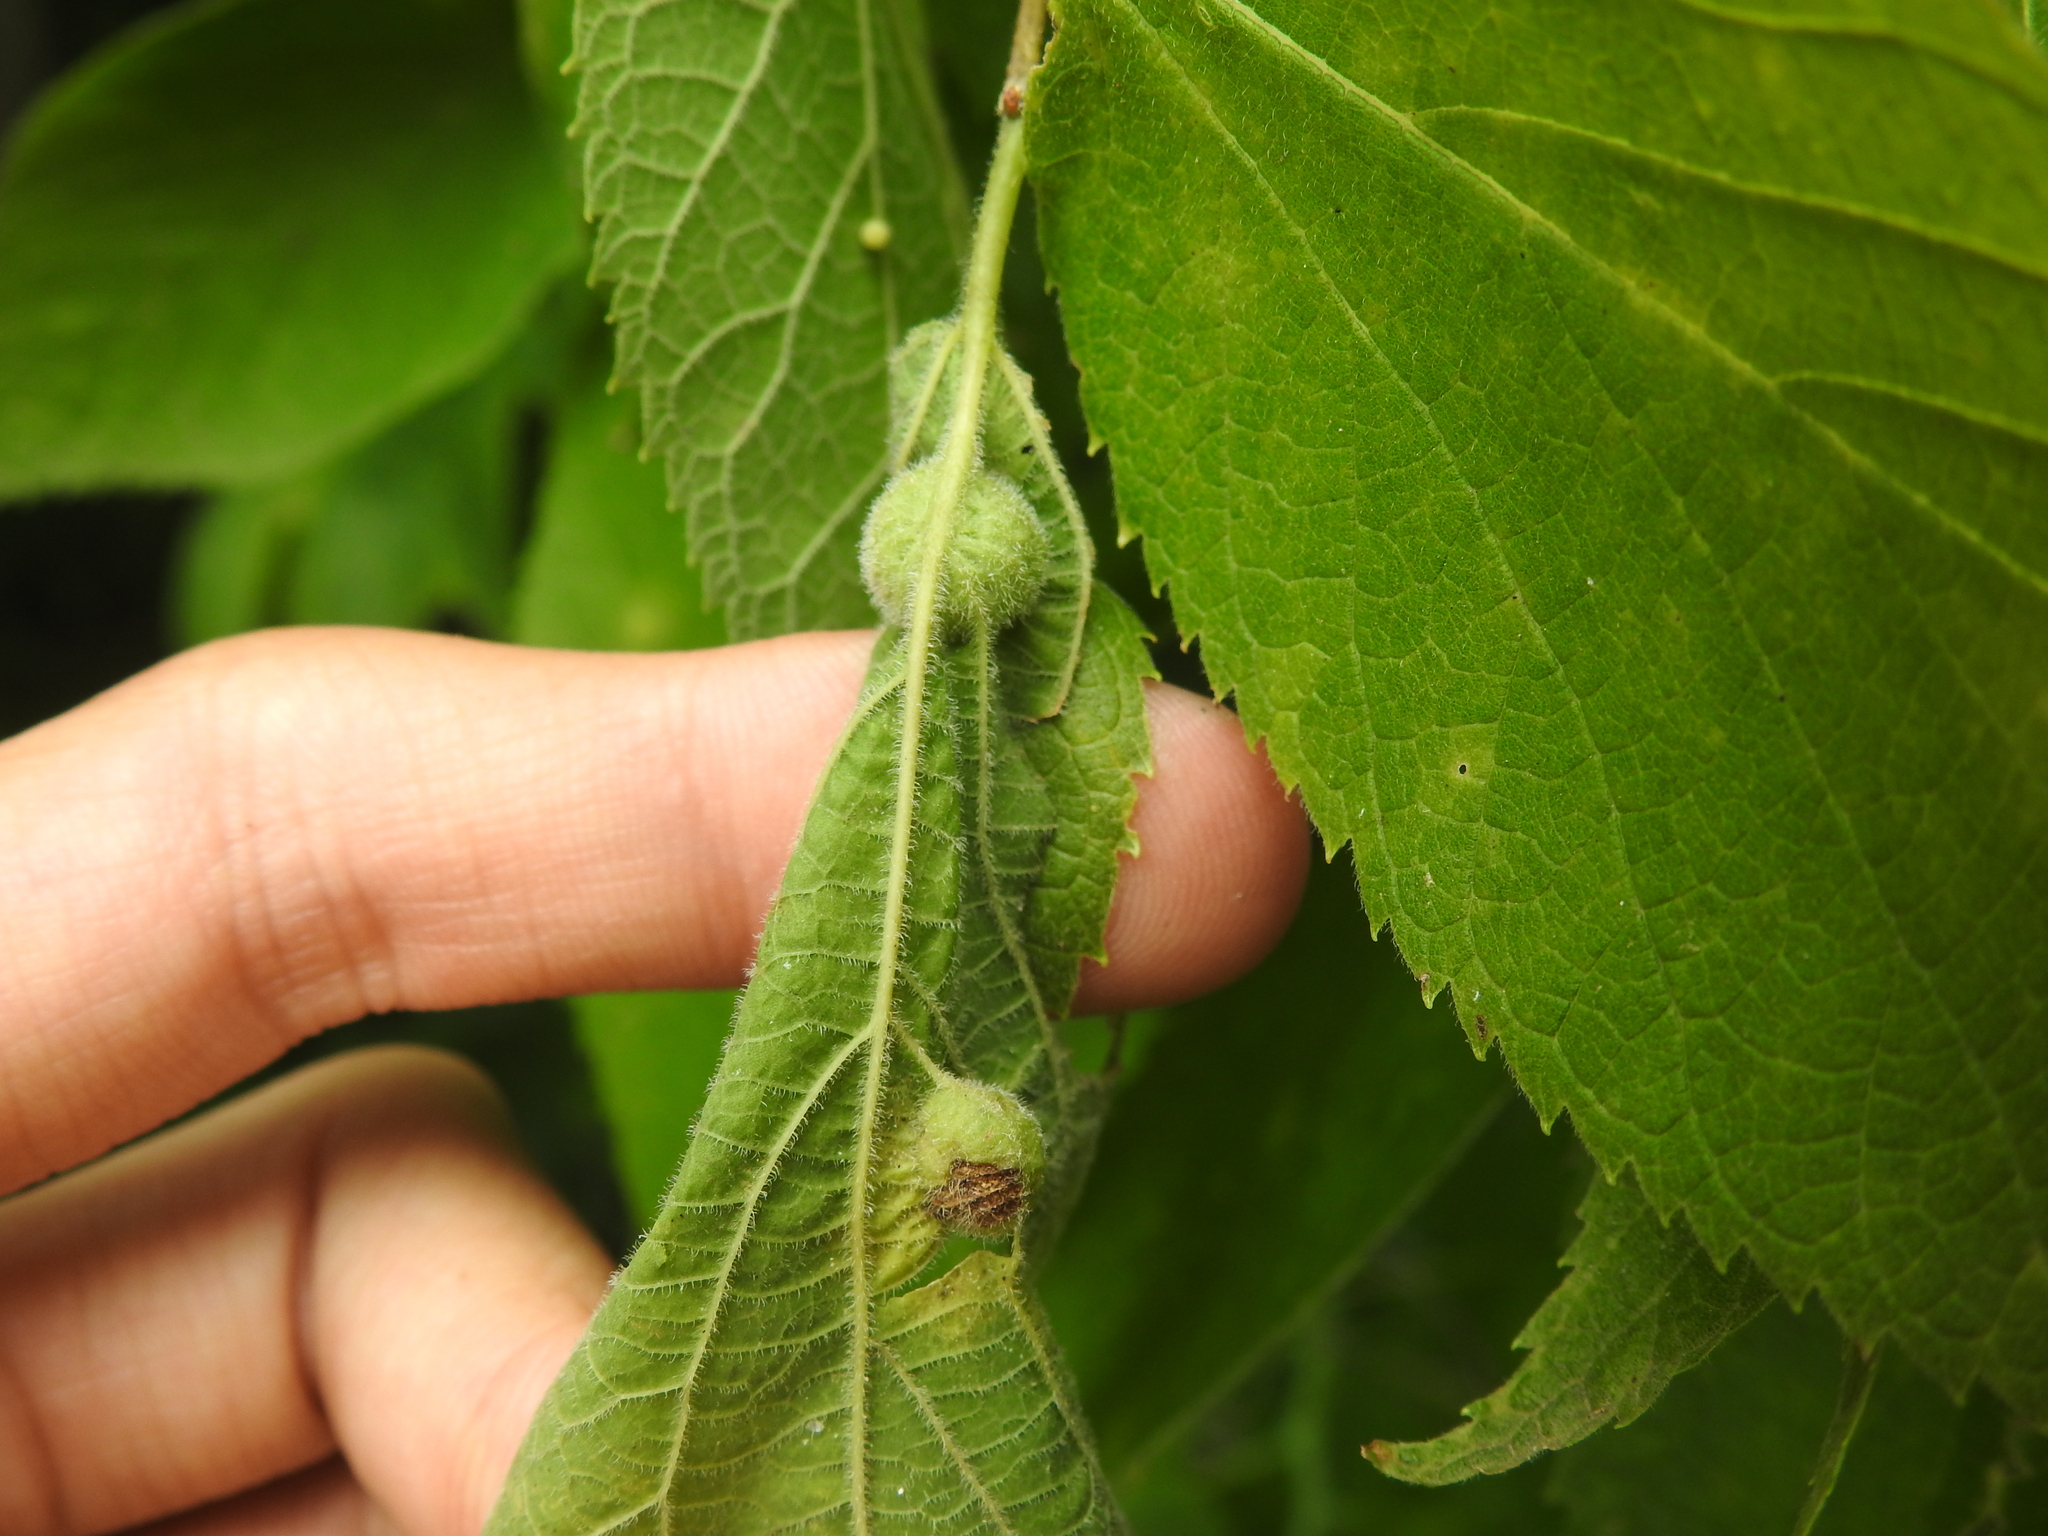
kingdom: Animalia
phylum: Arthropoda
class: Insecta
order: Diptera
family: Cecidomyiidae
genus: Peracecis
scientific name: Peracecis fugitiva
